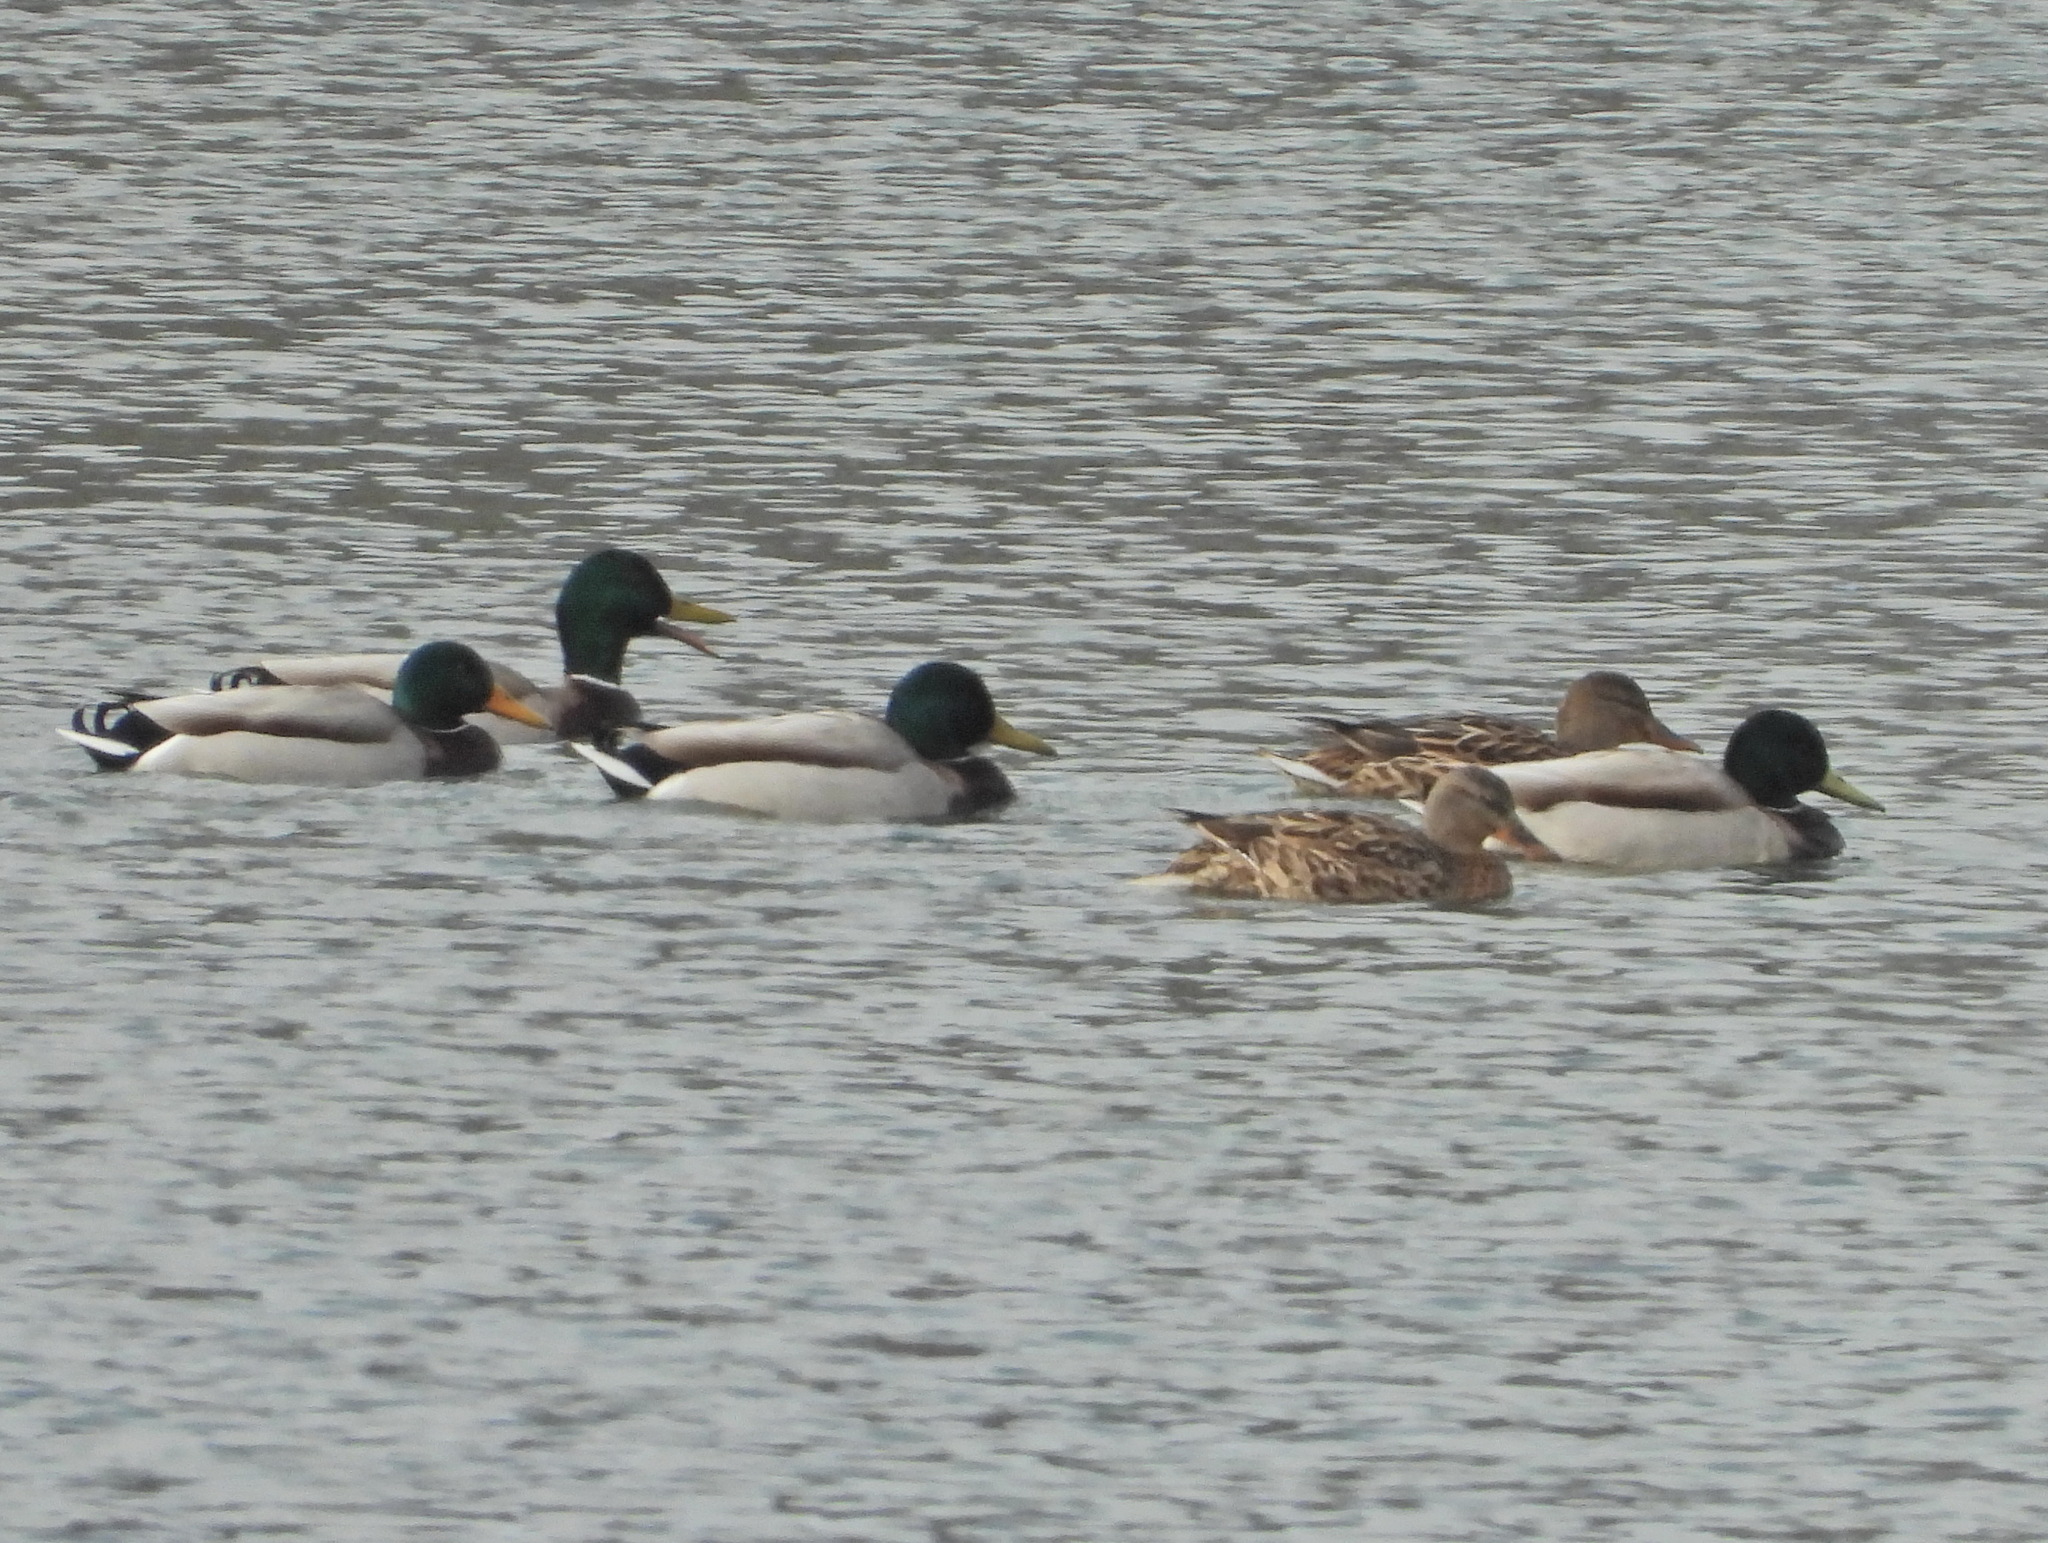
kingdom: Animalia
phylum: Chordata
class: Aves
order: Anseriformes
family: Anatidae
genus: Anas
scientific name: Anas platyrhynchos
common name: Mallard
